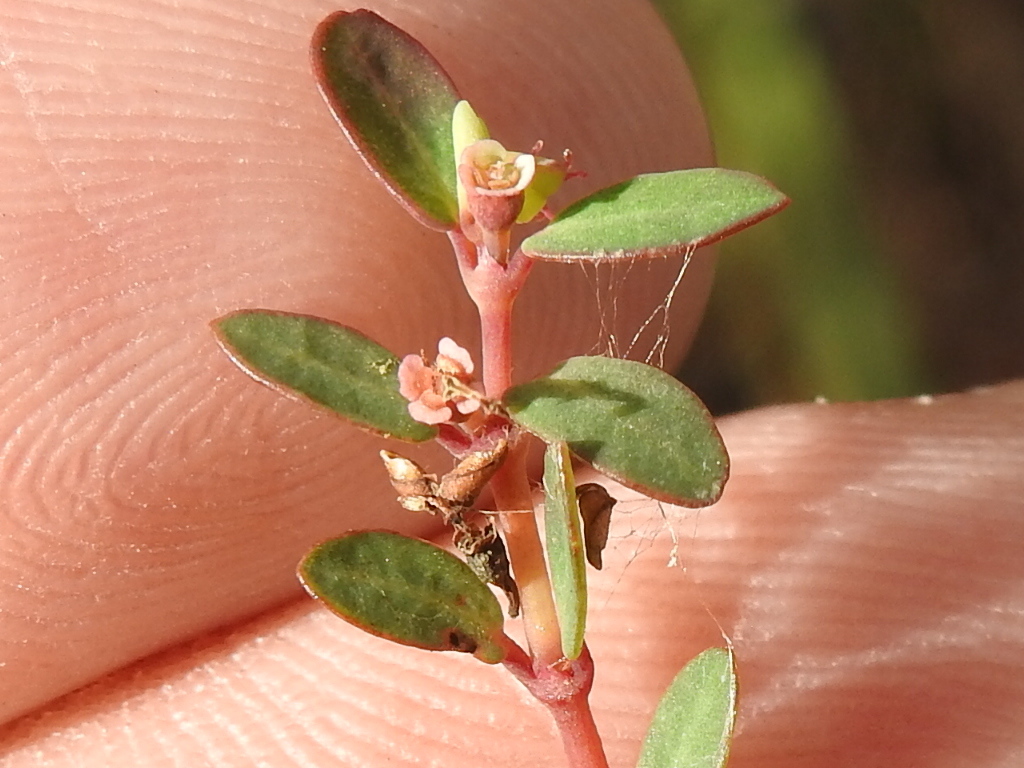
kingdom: Plantae
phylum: Tracheophyta
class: Magnoliopsida
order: Malpighiales
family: Euphorbiaceae
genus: Euphorbia
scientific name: Euphorbia ogdenii
